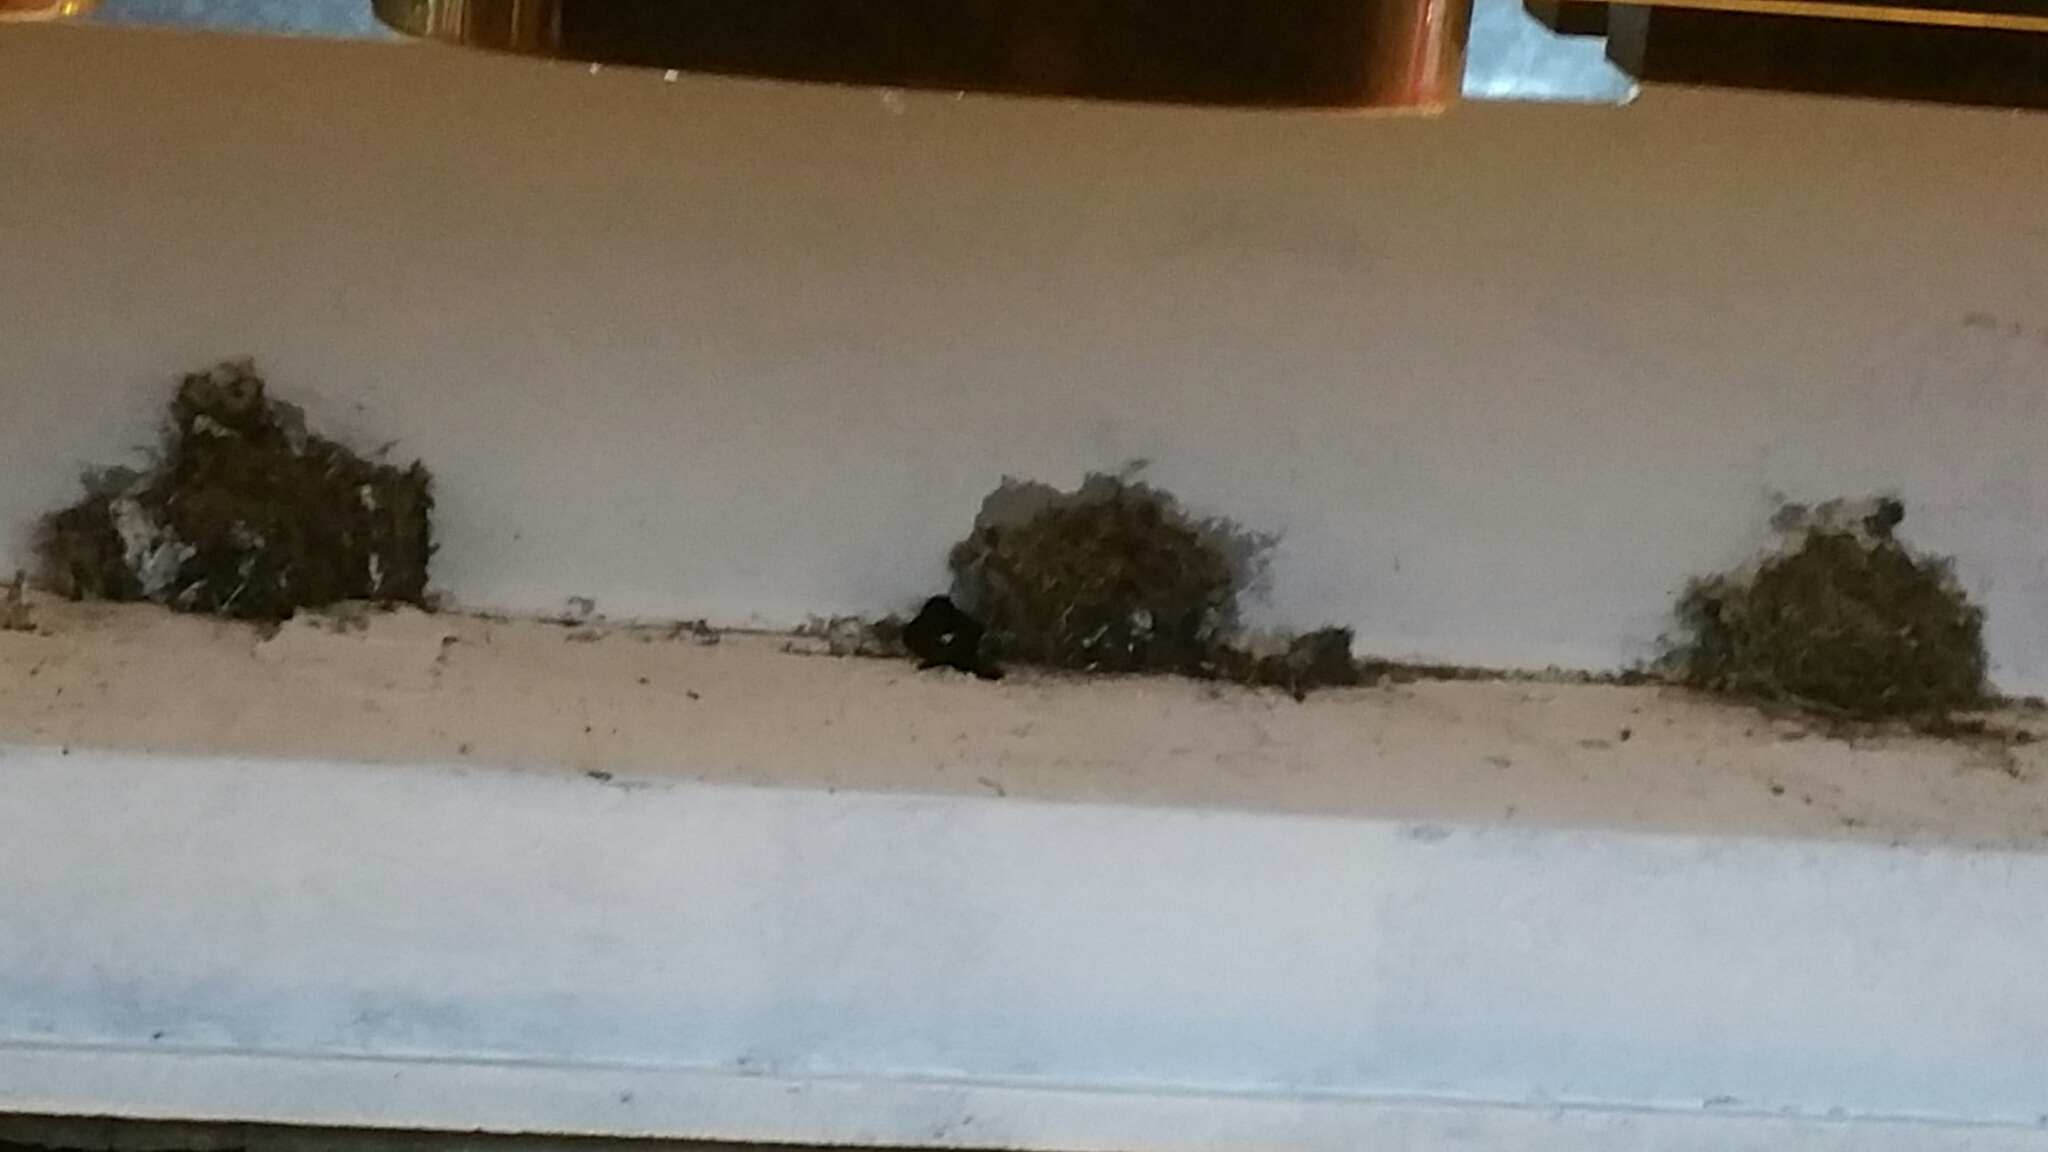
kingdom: Animalia
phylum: Chordata
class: Aves
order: Apodiformes
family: Apodidae
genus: Apus
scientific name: Apus nipalensis
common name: House swift
